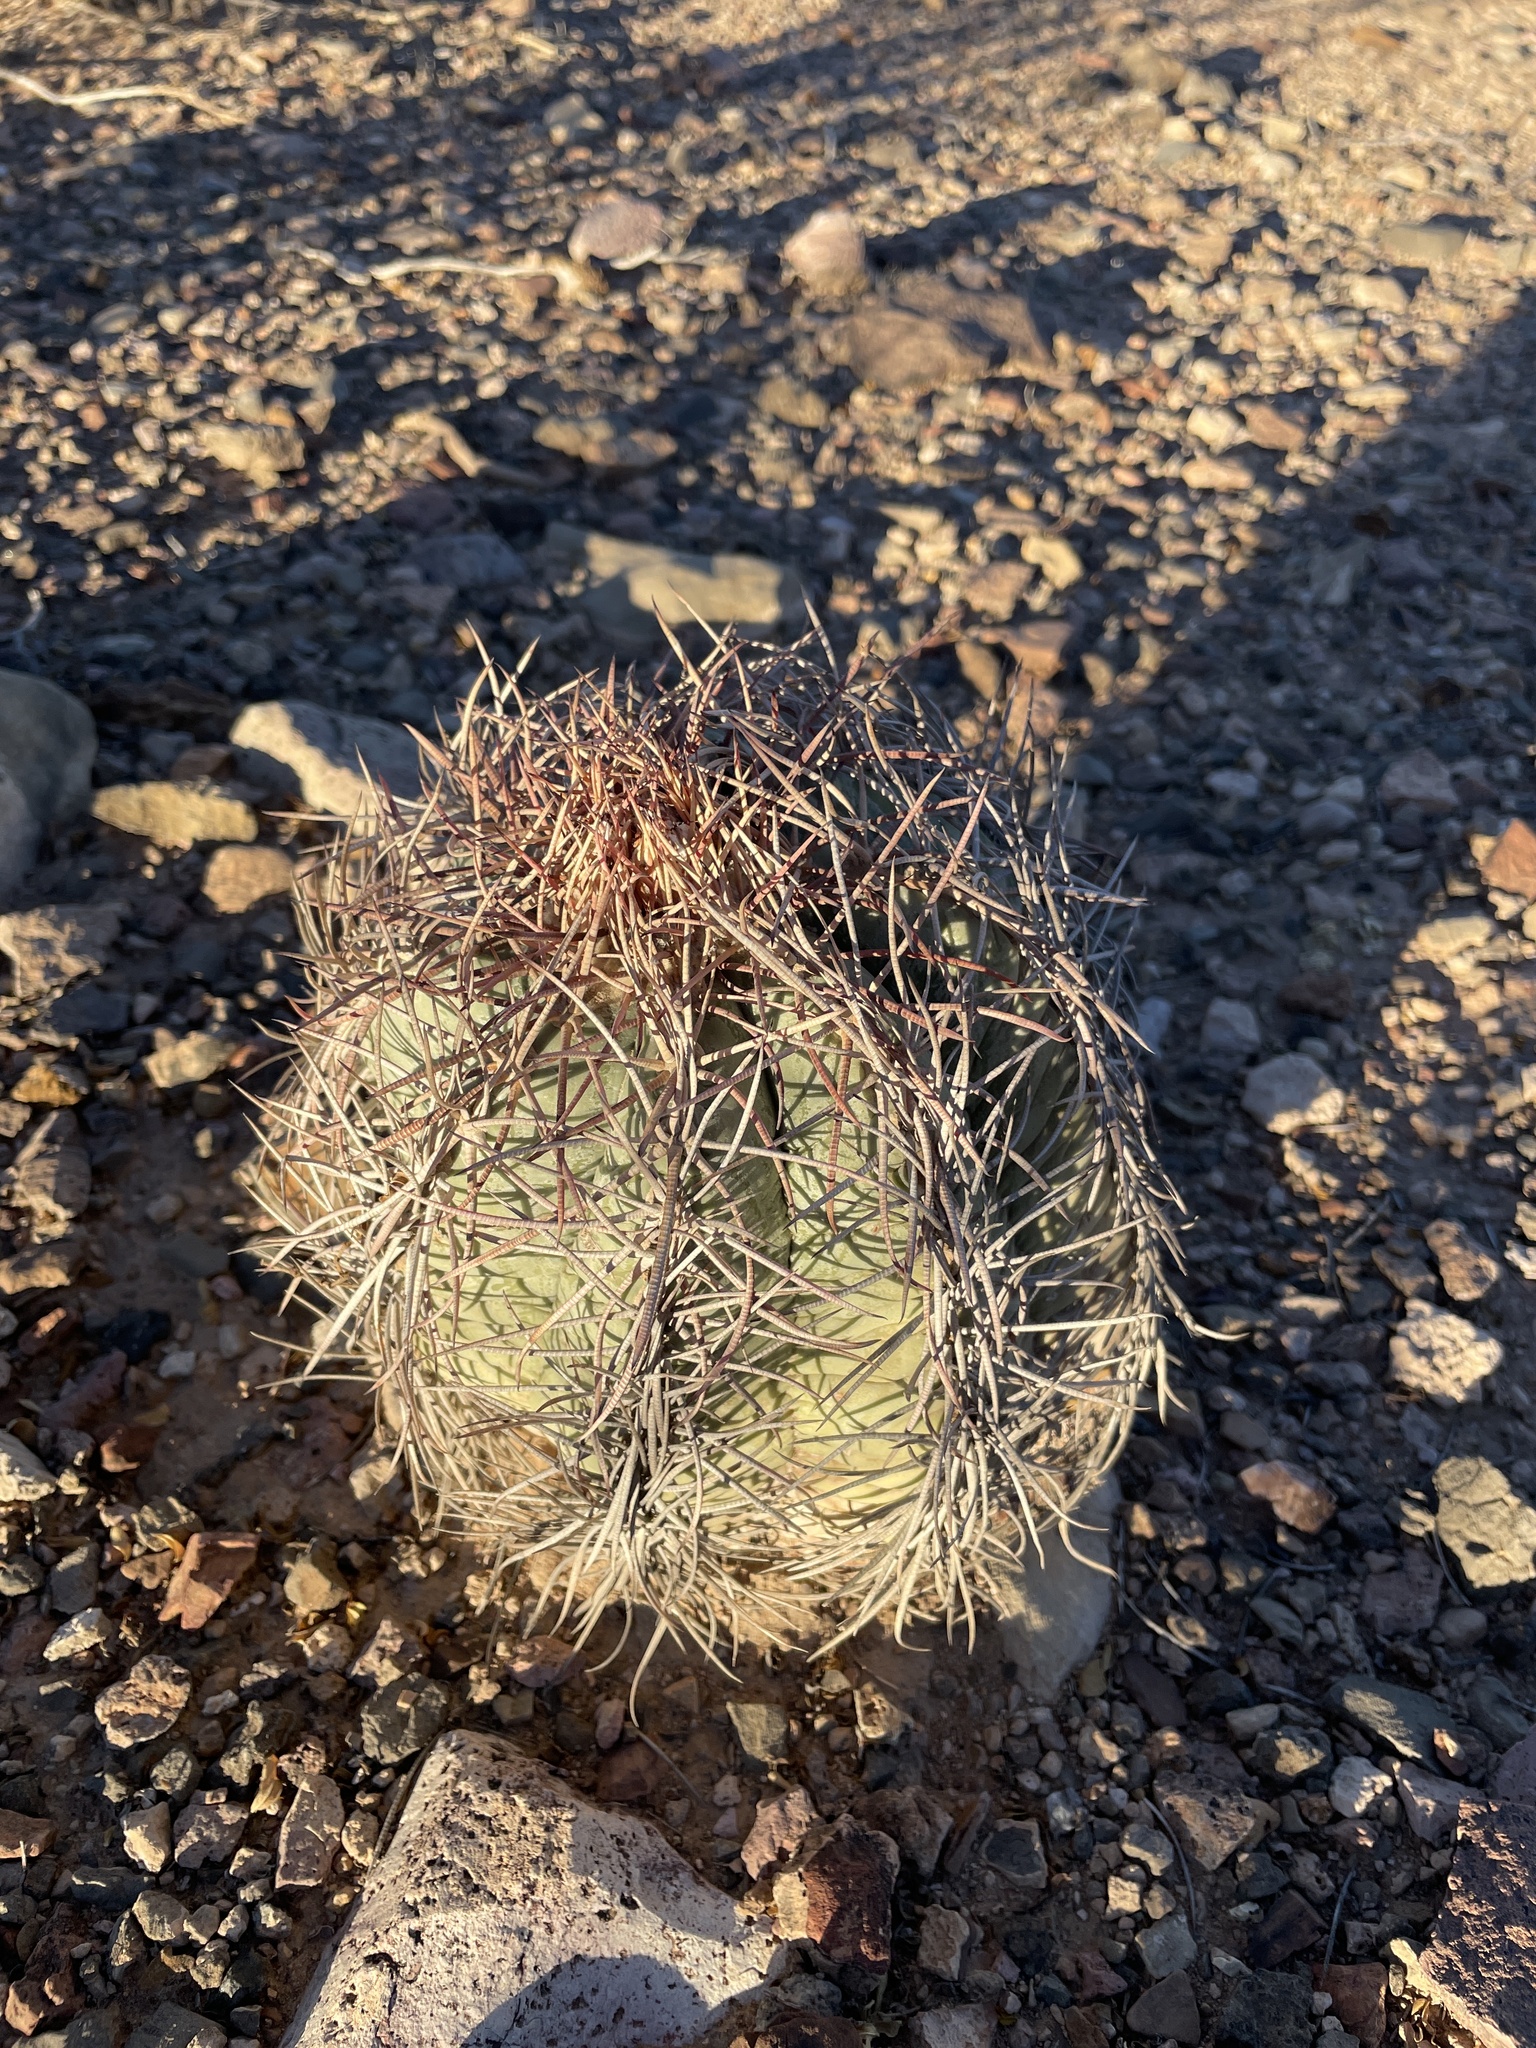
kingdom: Plantae
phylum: Tracheophyta
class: Magnoliopsida
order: Caryophyllales
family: Cactaceae
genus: Echinocactus
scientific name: Echinocactus horizonthalonius
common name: Devilshead
